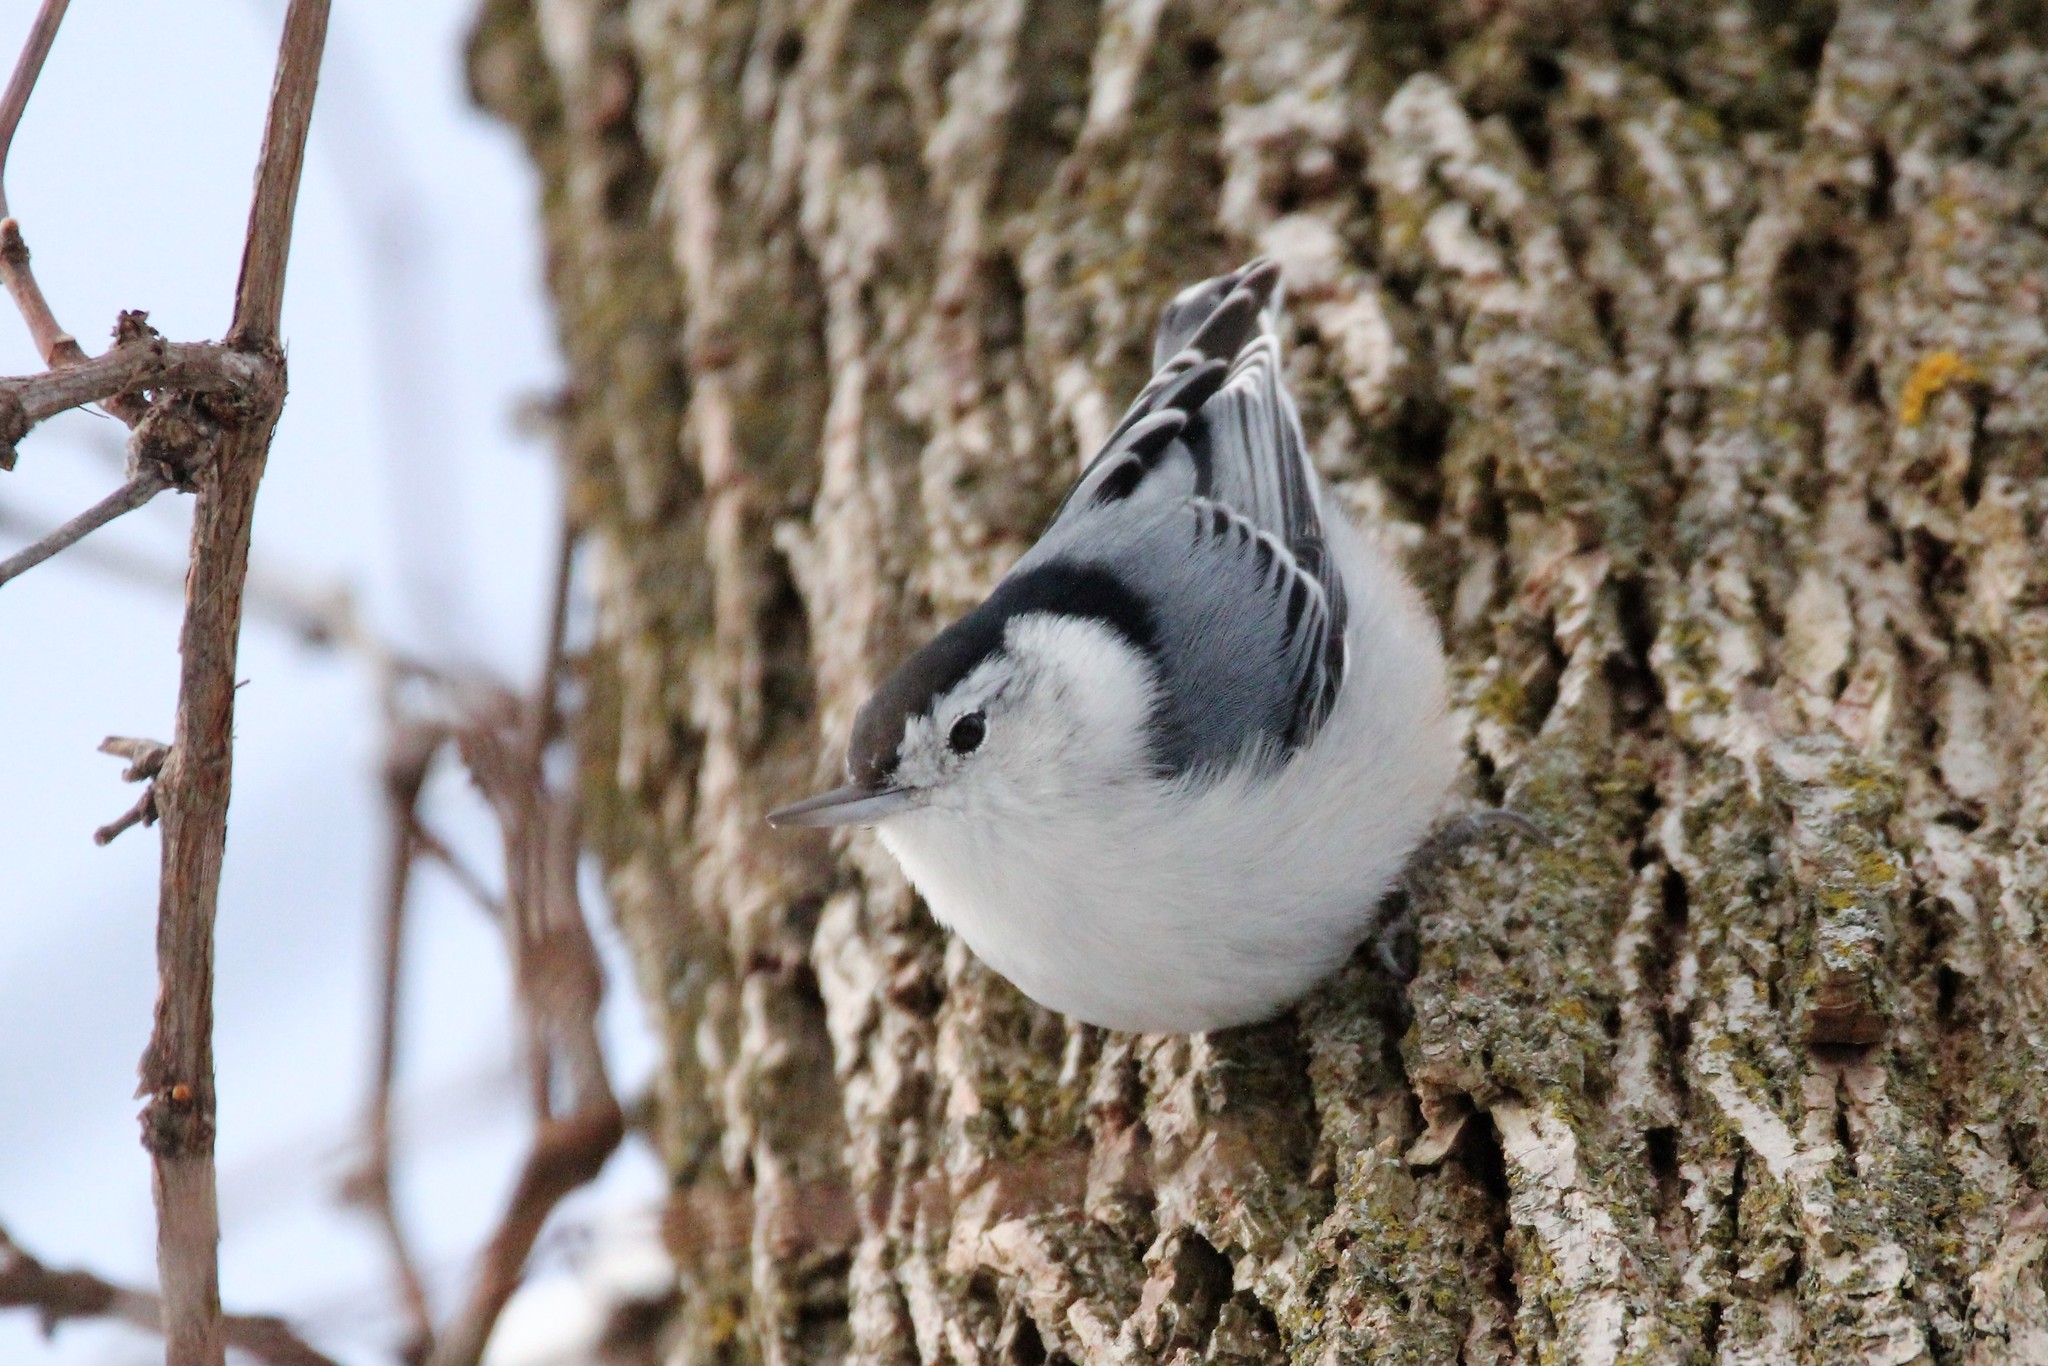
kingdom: Animalia
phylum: Chordata
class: Aves
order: Passeriformes
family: Sittidae
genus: Sitta
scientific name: Sitta carolinensis
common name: White-breasted nuthatch
